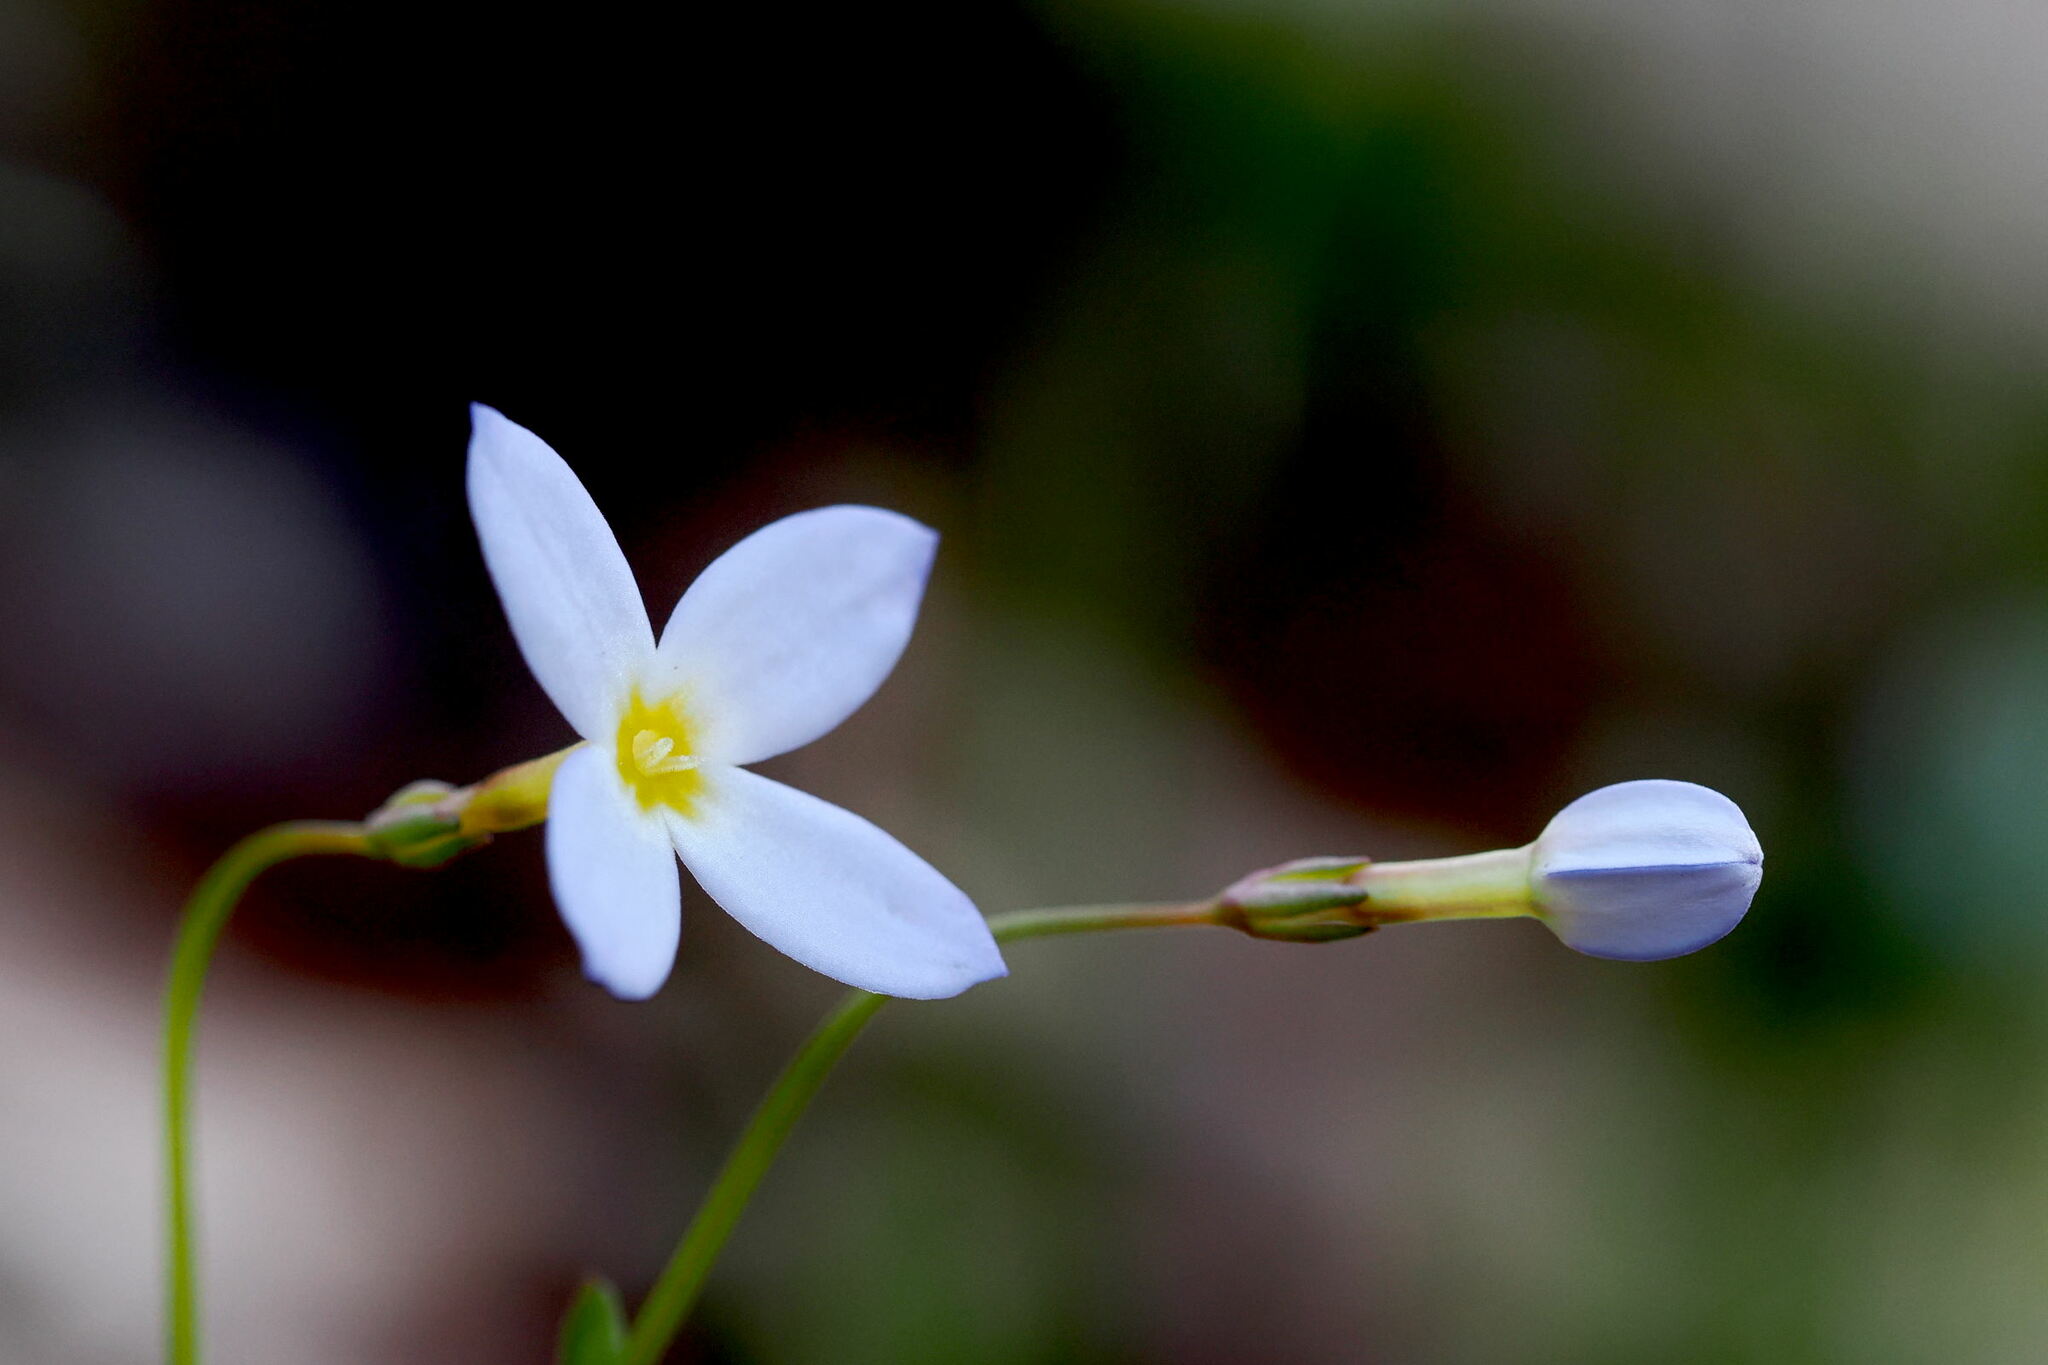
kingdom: Plantae
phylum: Tracheophyta
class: Magnoliopsida
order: Gentianales
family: Rubiaceae
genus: Houstonia
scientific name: Houstonia caerulea
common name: Bluets
